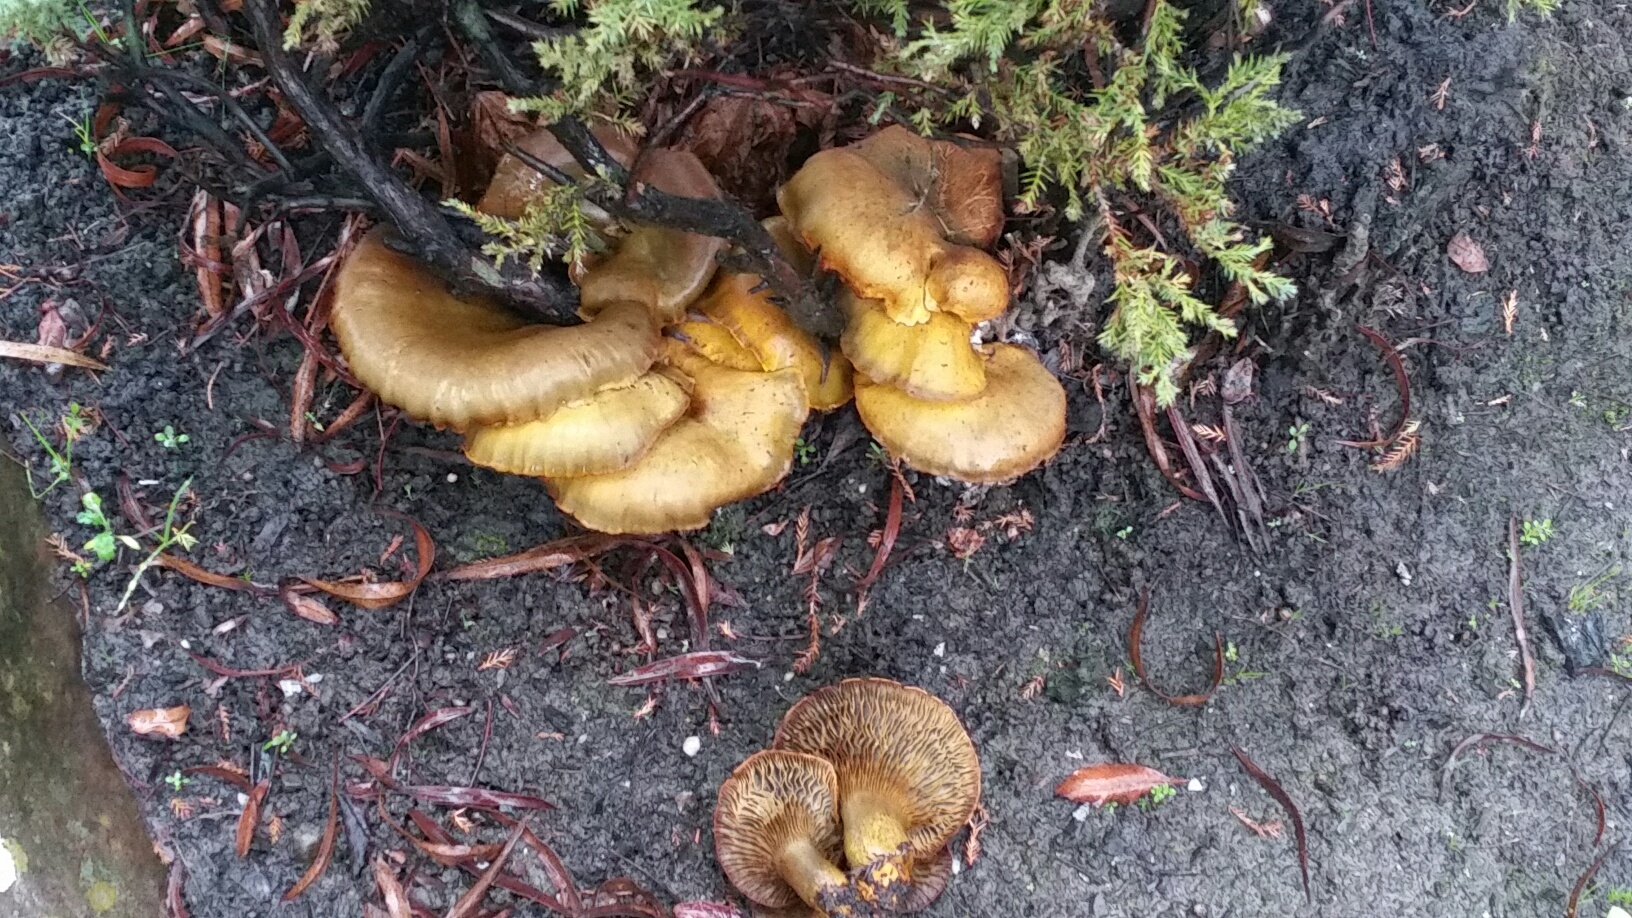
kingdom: Fungi
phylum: Basidiomycota
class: Agaricomycetes
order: Agaricales
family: Omphalotaceae
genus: Omphalotus
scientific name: Omphalotus olivascens
